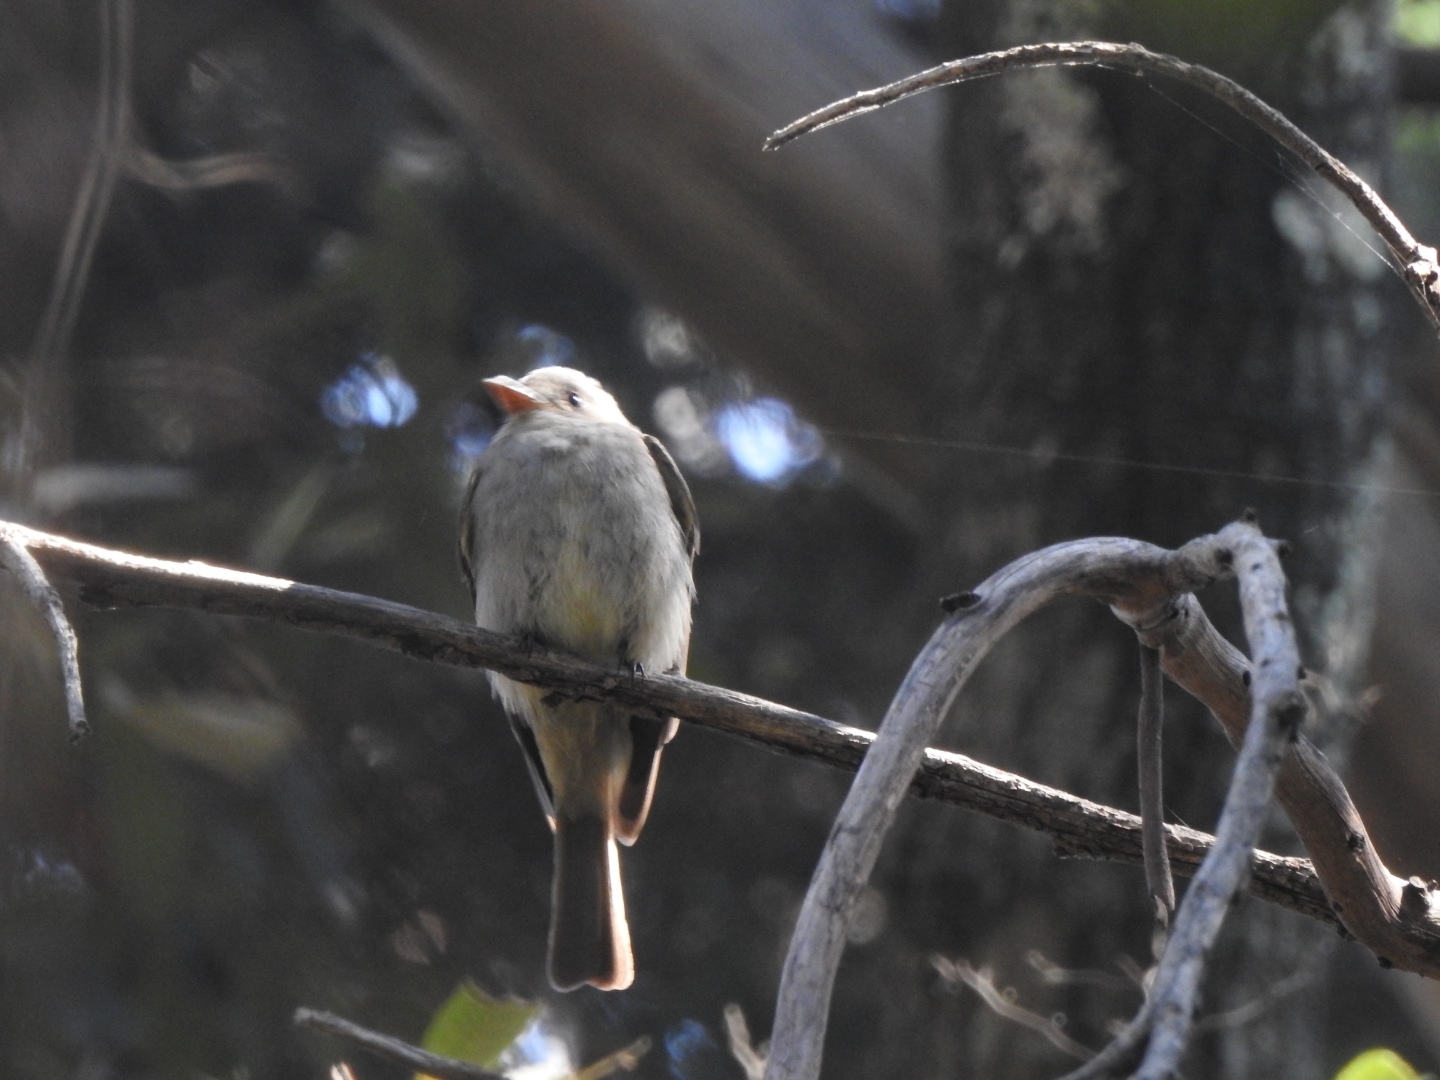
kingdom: Animalia
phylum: Chordata
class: Aves
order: Passeriformes
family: Tyrannidae
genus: Contopus
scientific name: Contopus pertinax
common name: Greater pewee
